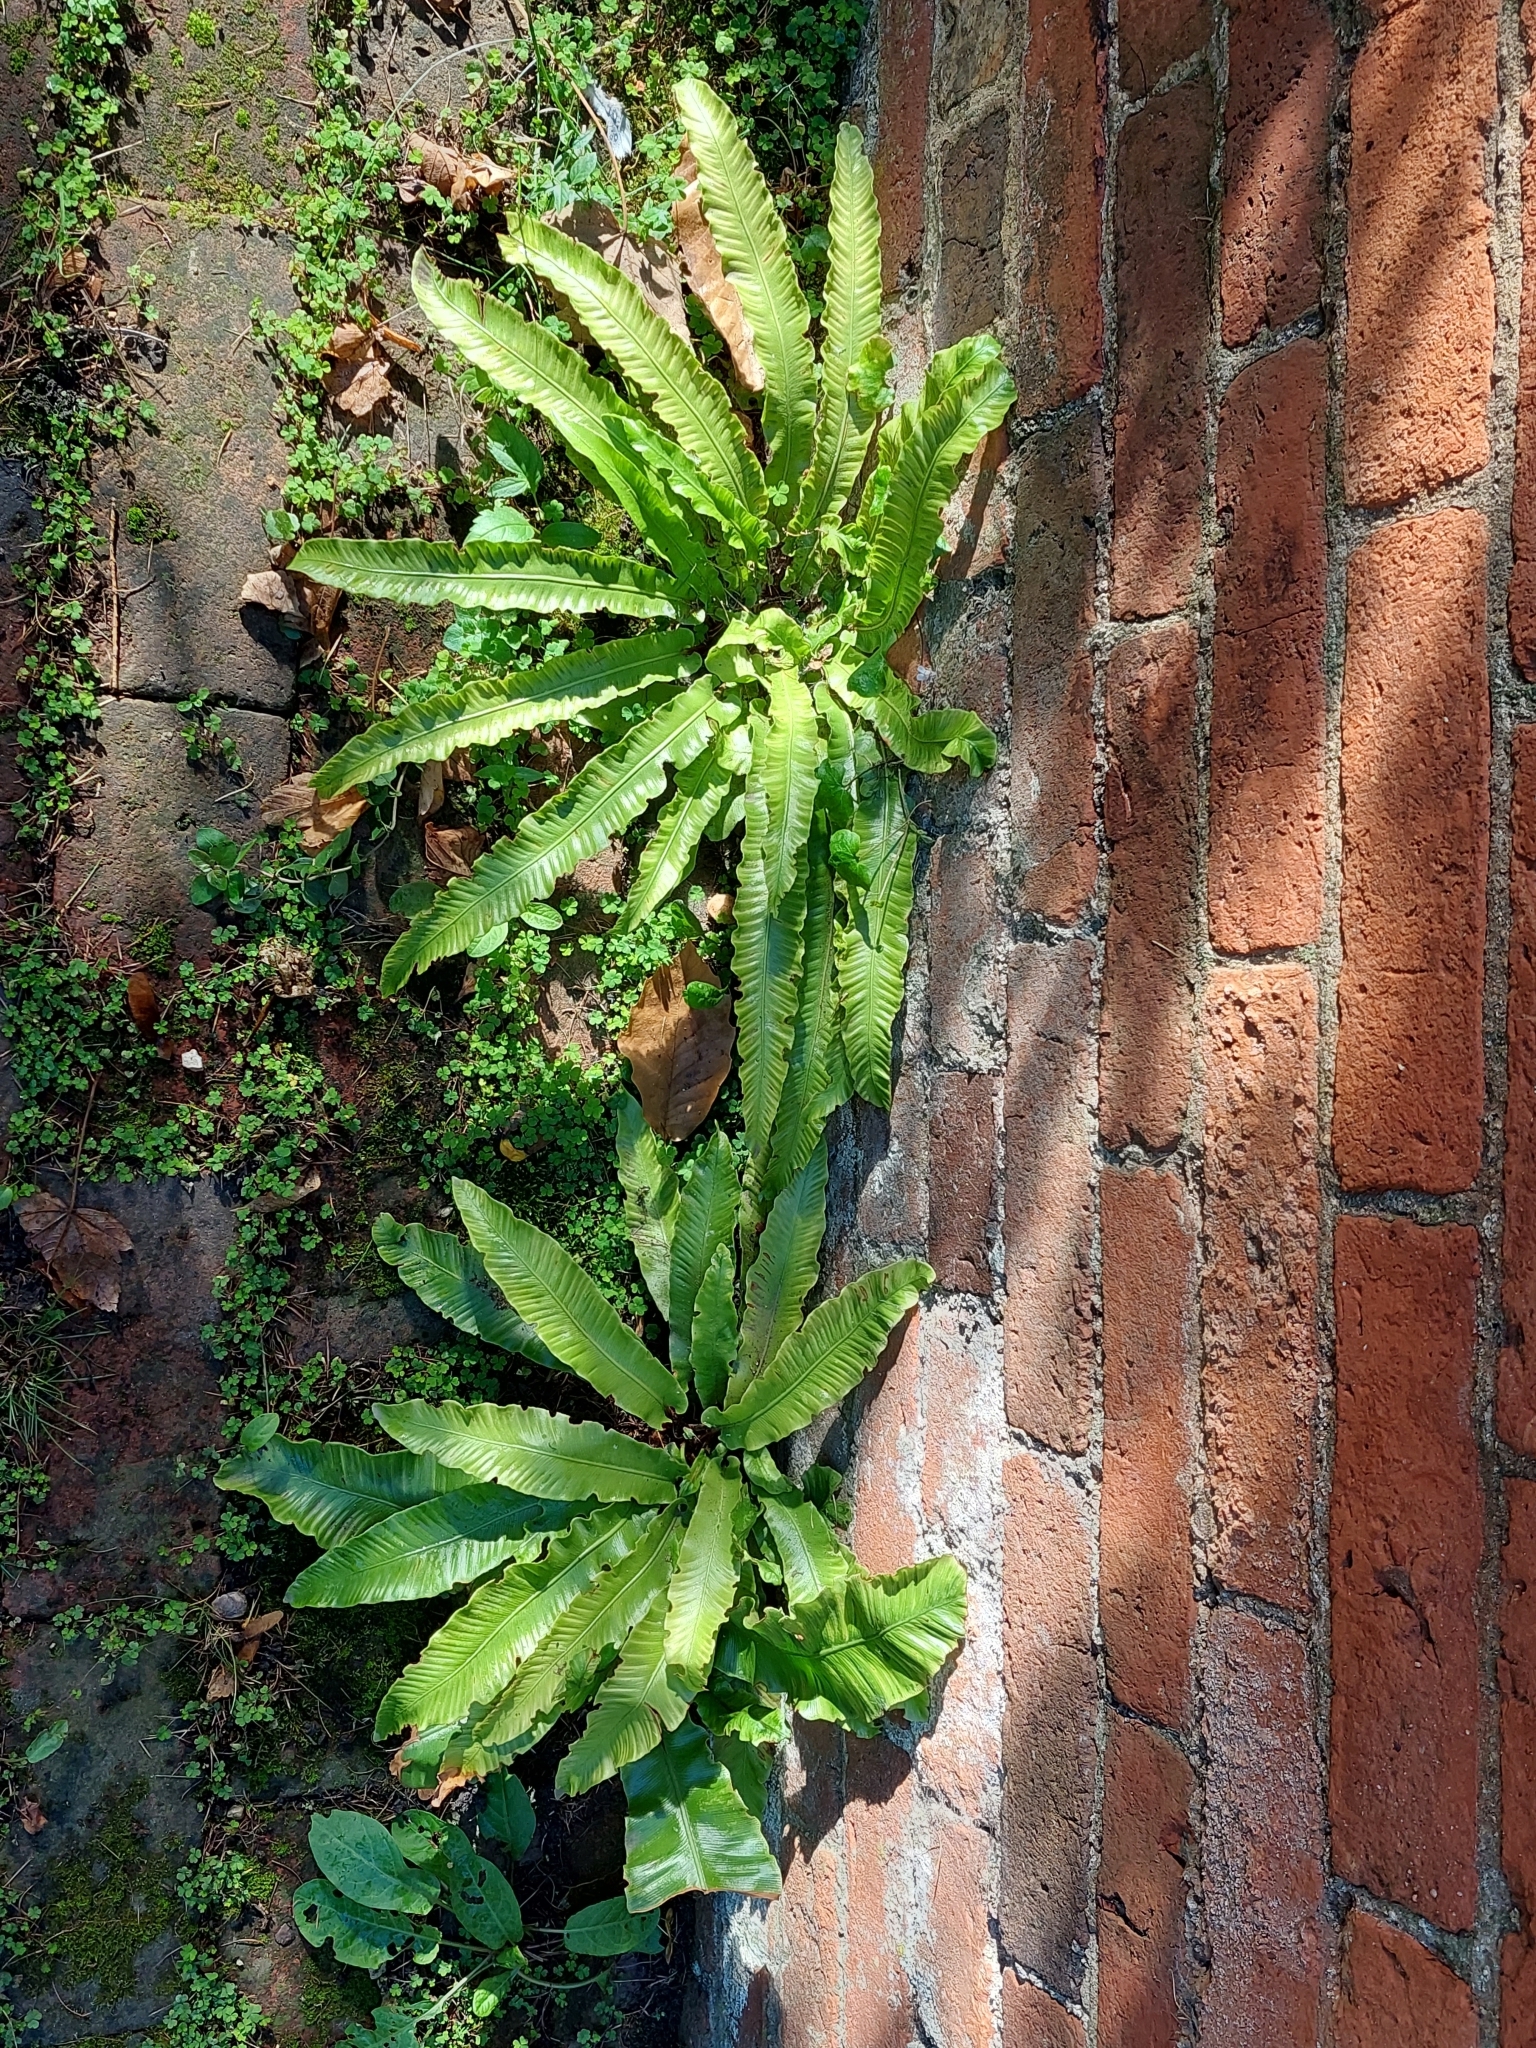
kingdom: Plantae
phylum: Tracheophyta
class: Polypodiopsida
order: Polypodiales
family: Aspleniaceae
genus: Asplenium
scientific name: Asplenium scolopendrium
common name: Hart's-tongue fern
